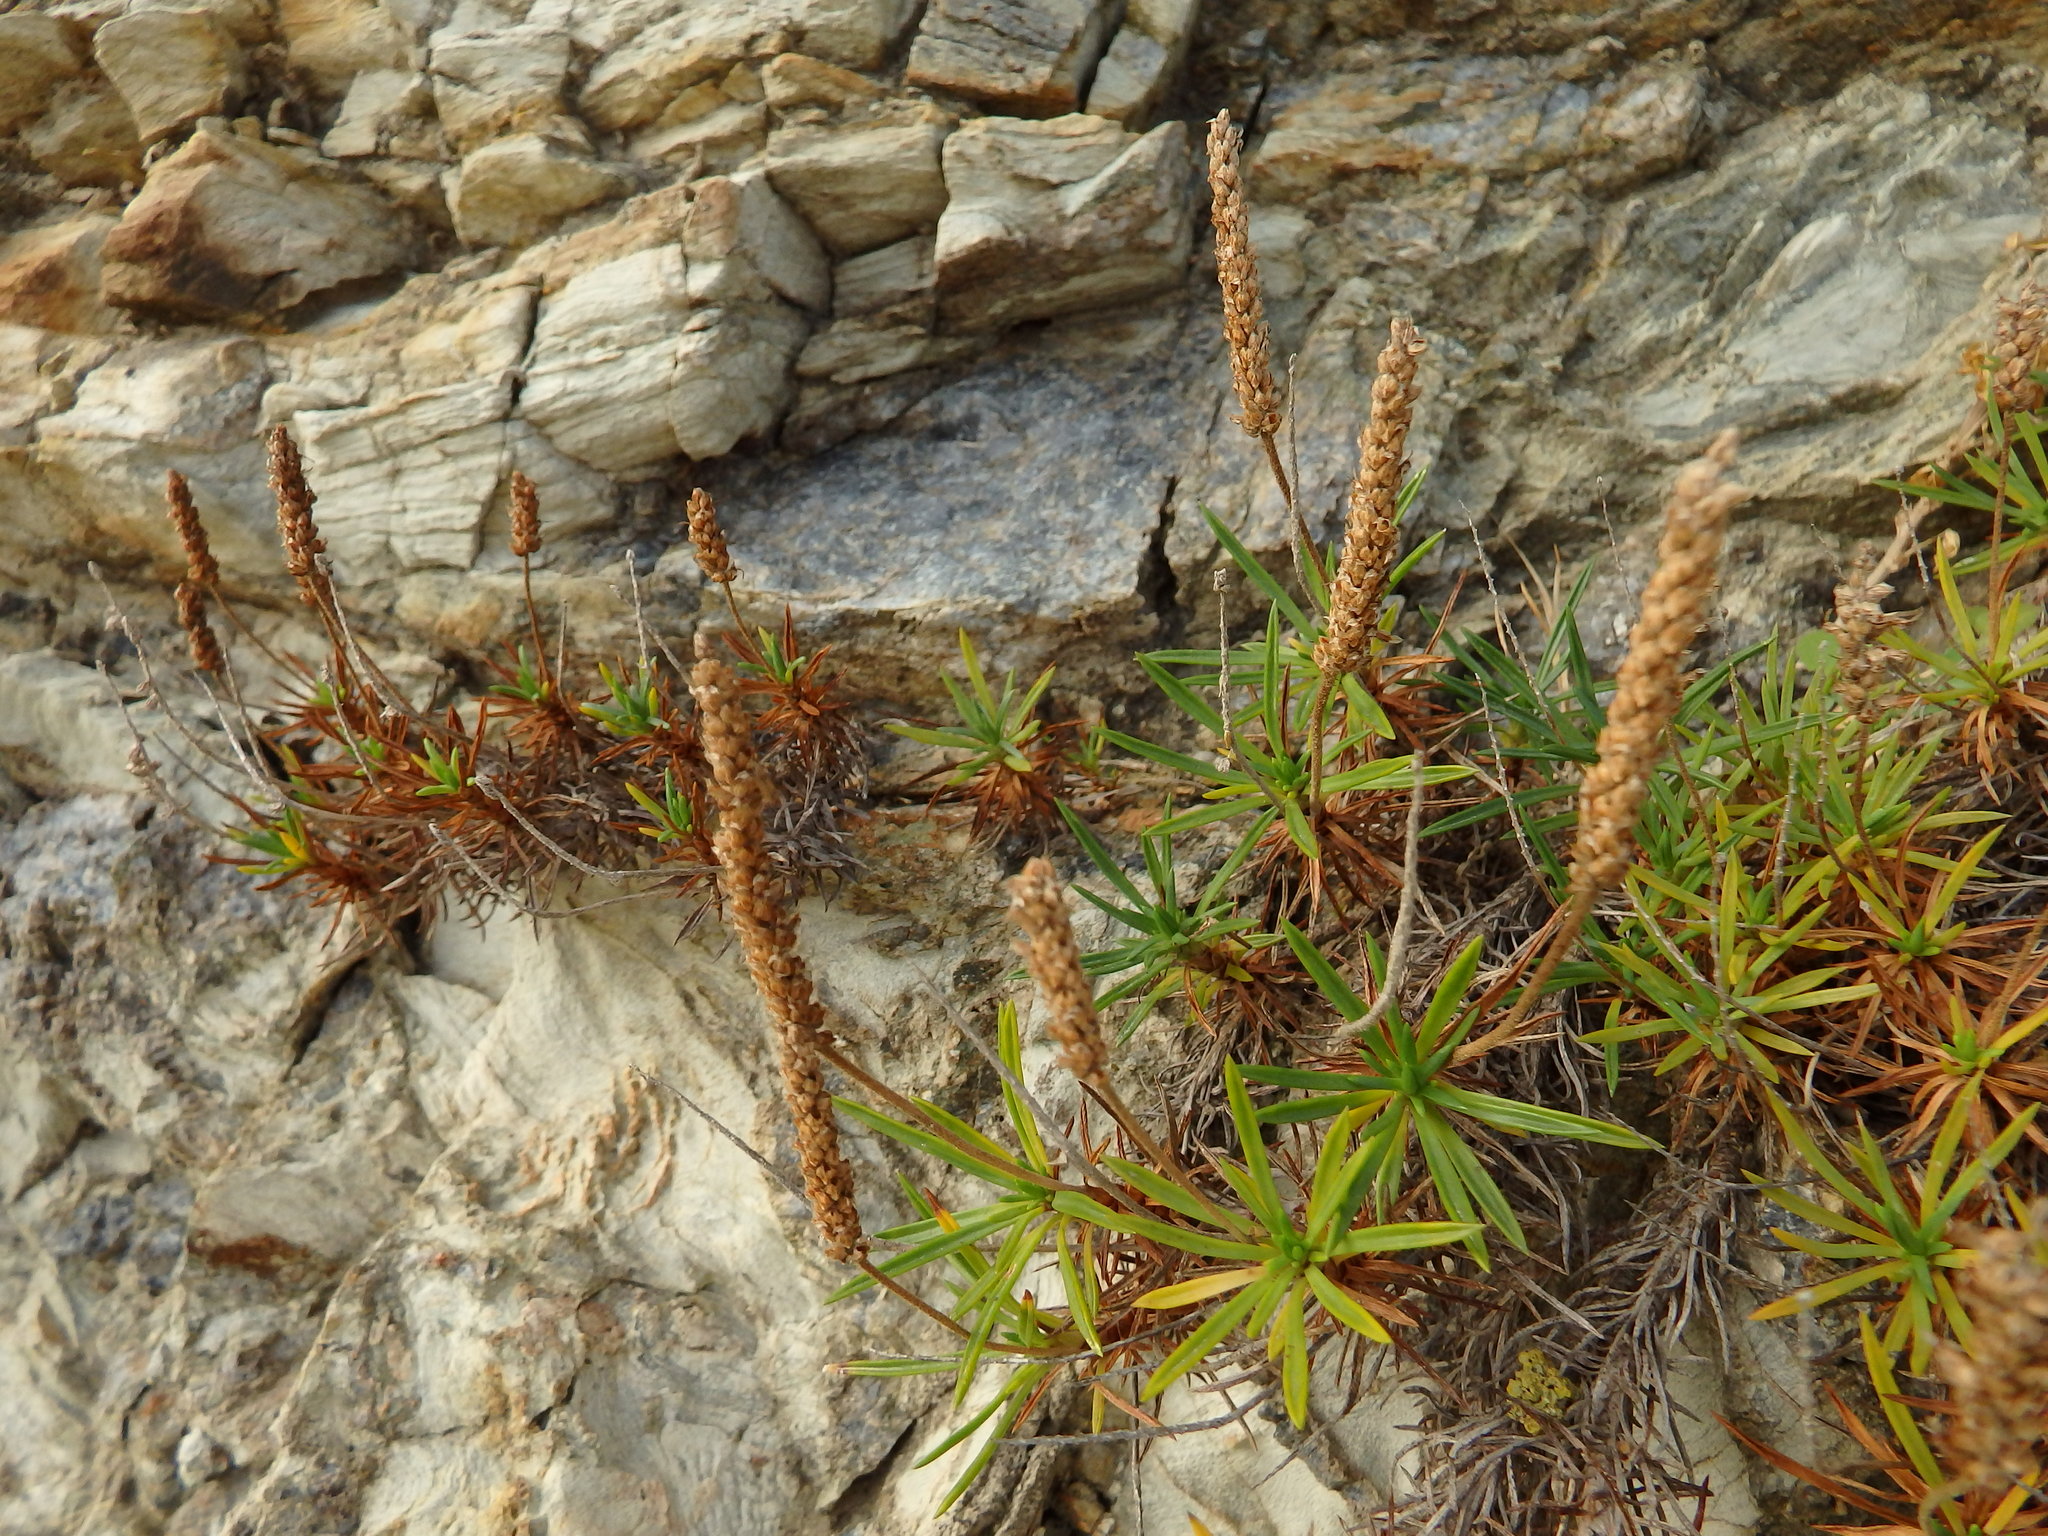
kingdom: Plantae
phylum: Tracheophyta
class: Magnoliopsida
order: Lamiales
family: Plantaginaceae
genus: Plantago
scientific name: Plantago subulata
